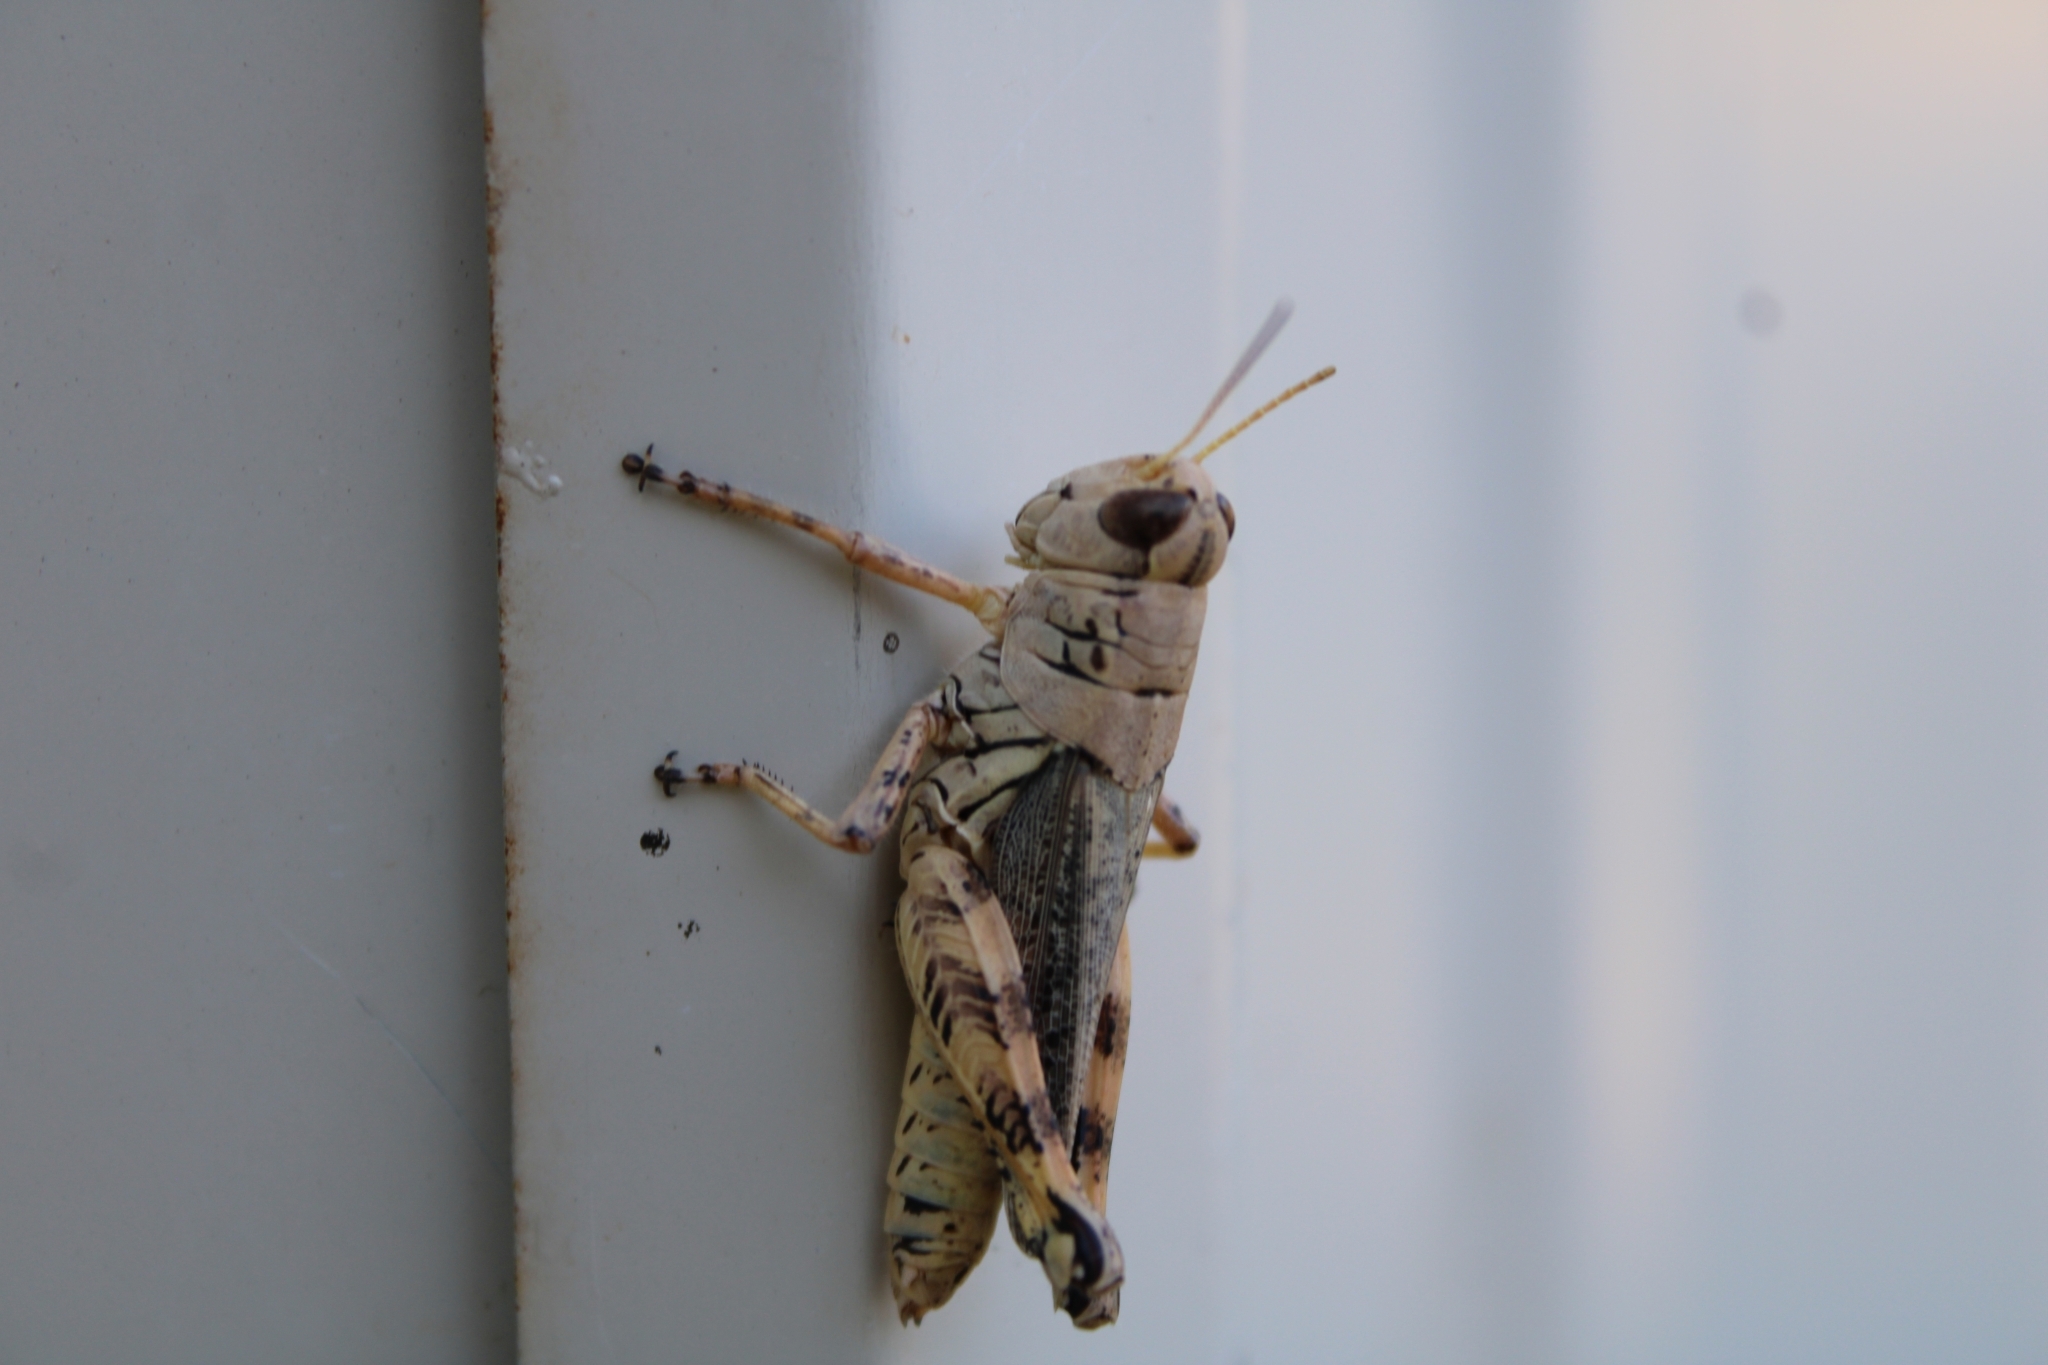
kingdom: Animalia
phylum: Arthropoda
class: Insecta
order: Orthoptera
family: Acrididae
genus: Melanoplus
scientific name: Melanoplus ponderosus
